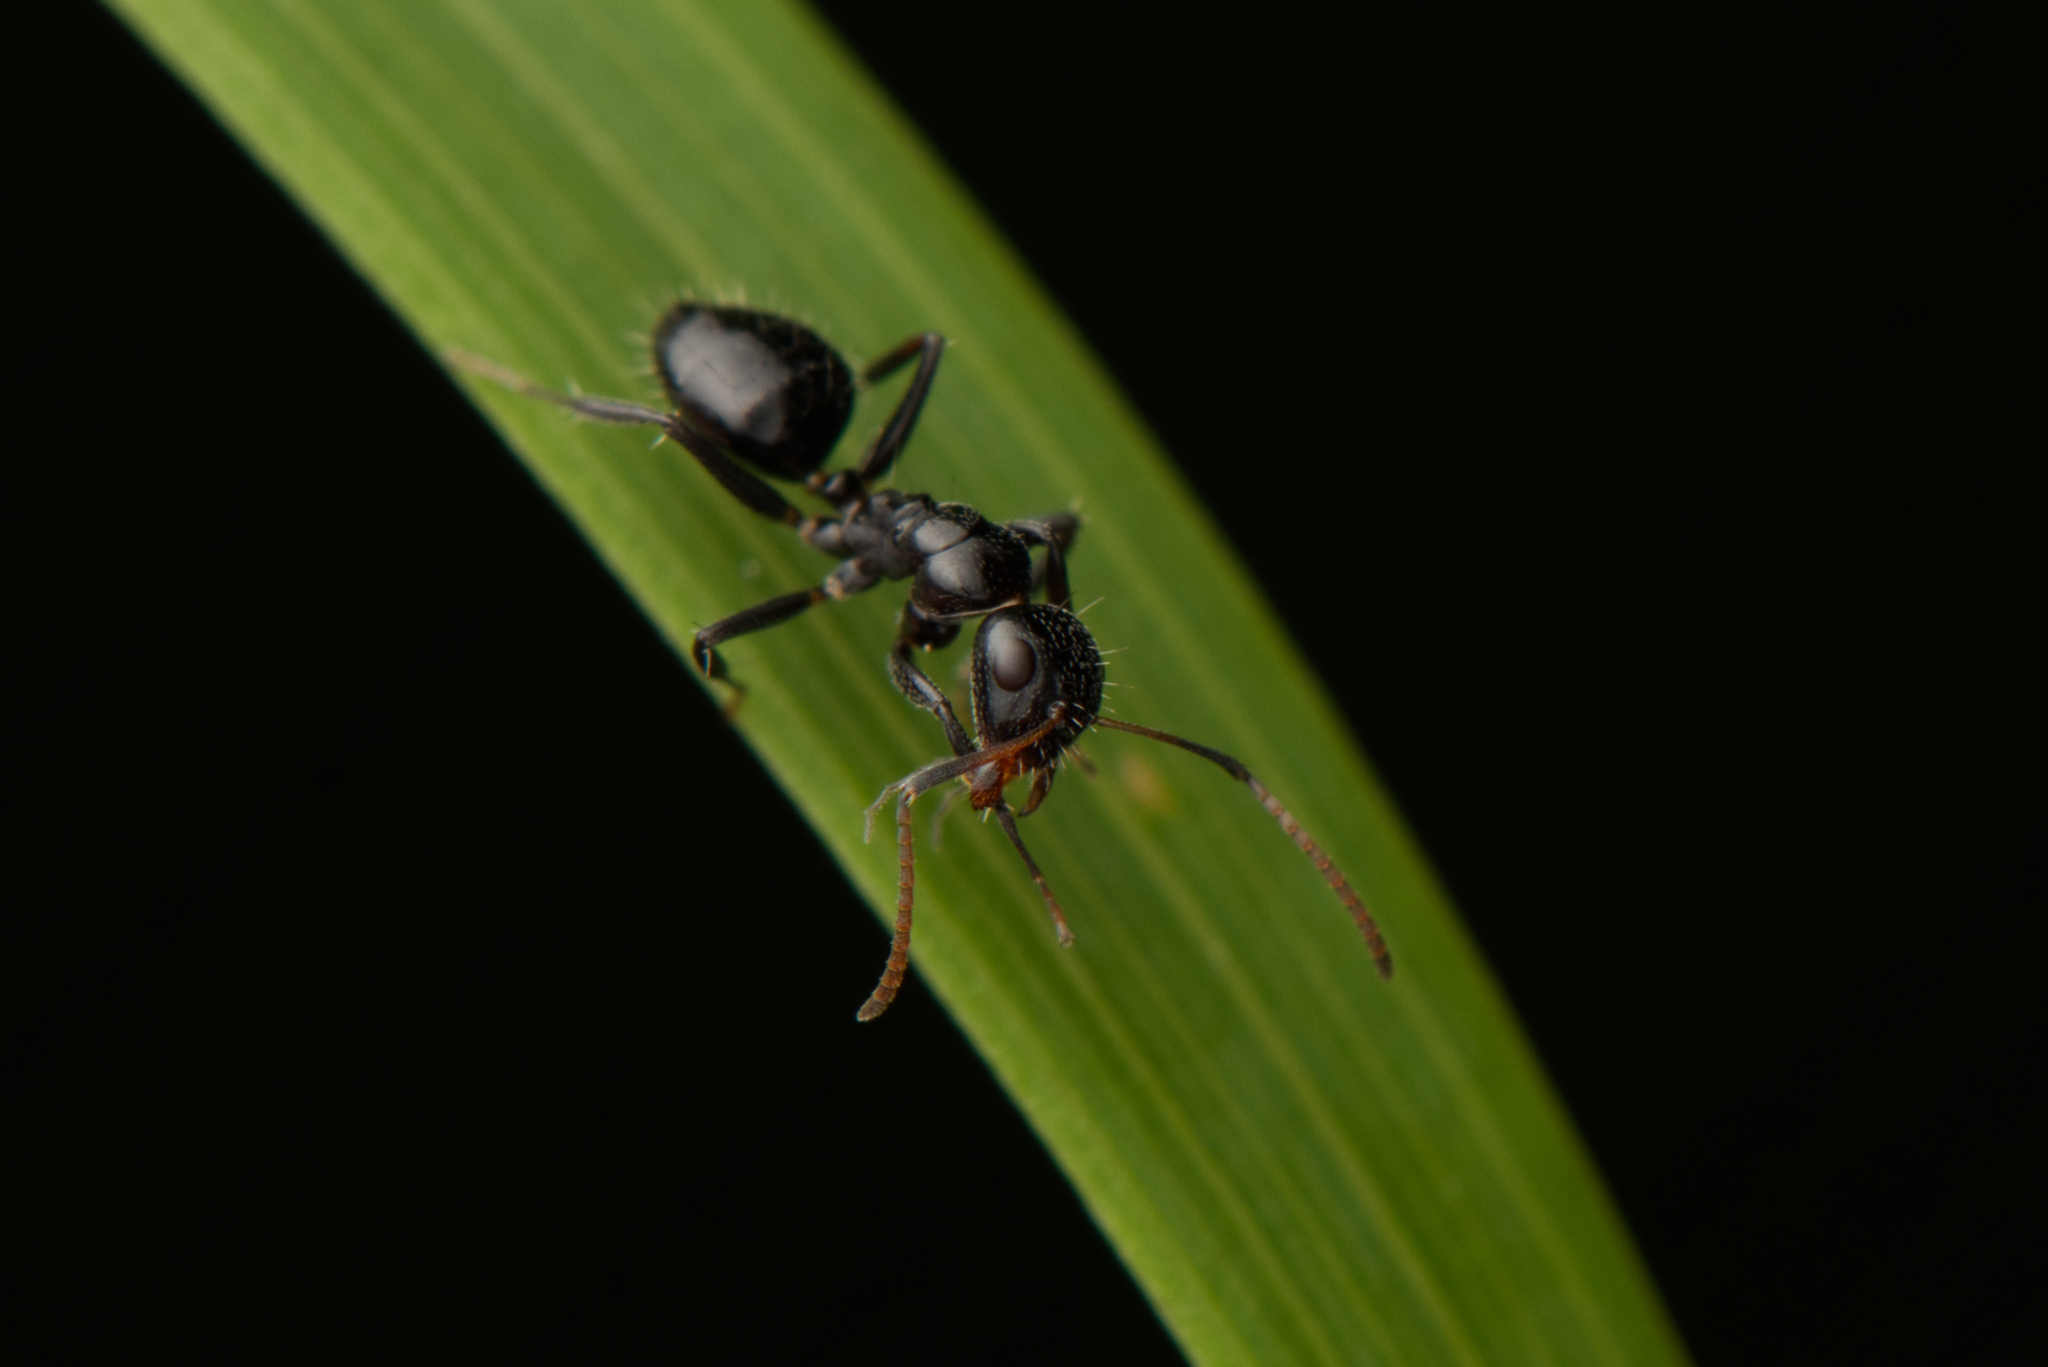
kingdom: Animalia
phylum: Arthropoda
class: Insecta
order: Hymenoptera
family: Formicidae
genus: Camponotus
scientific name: Camponotus mackayensis
